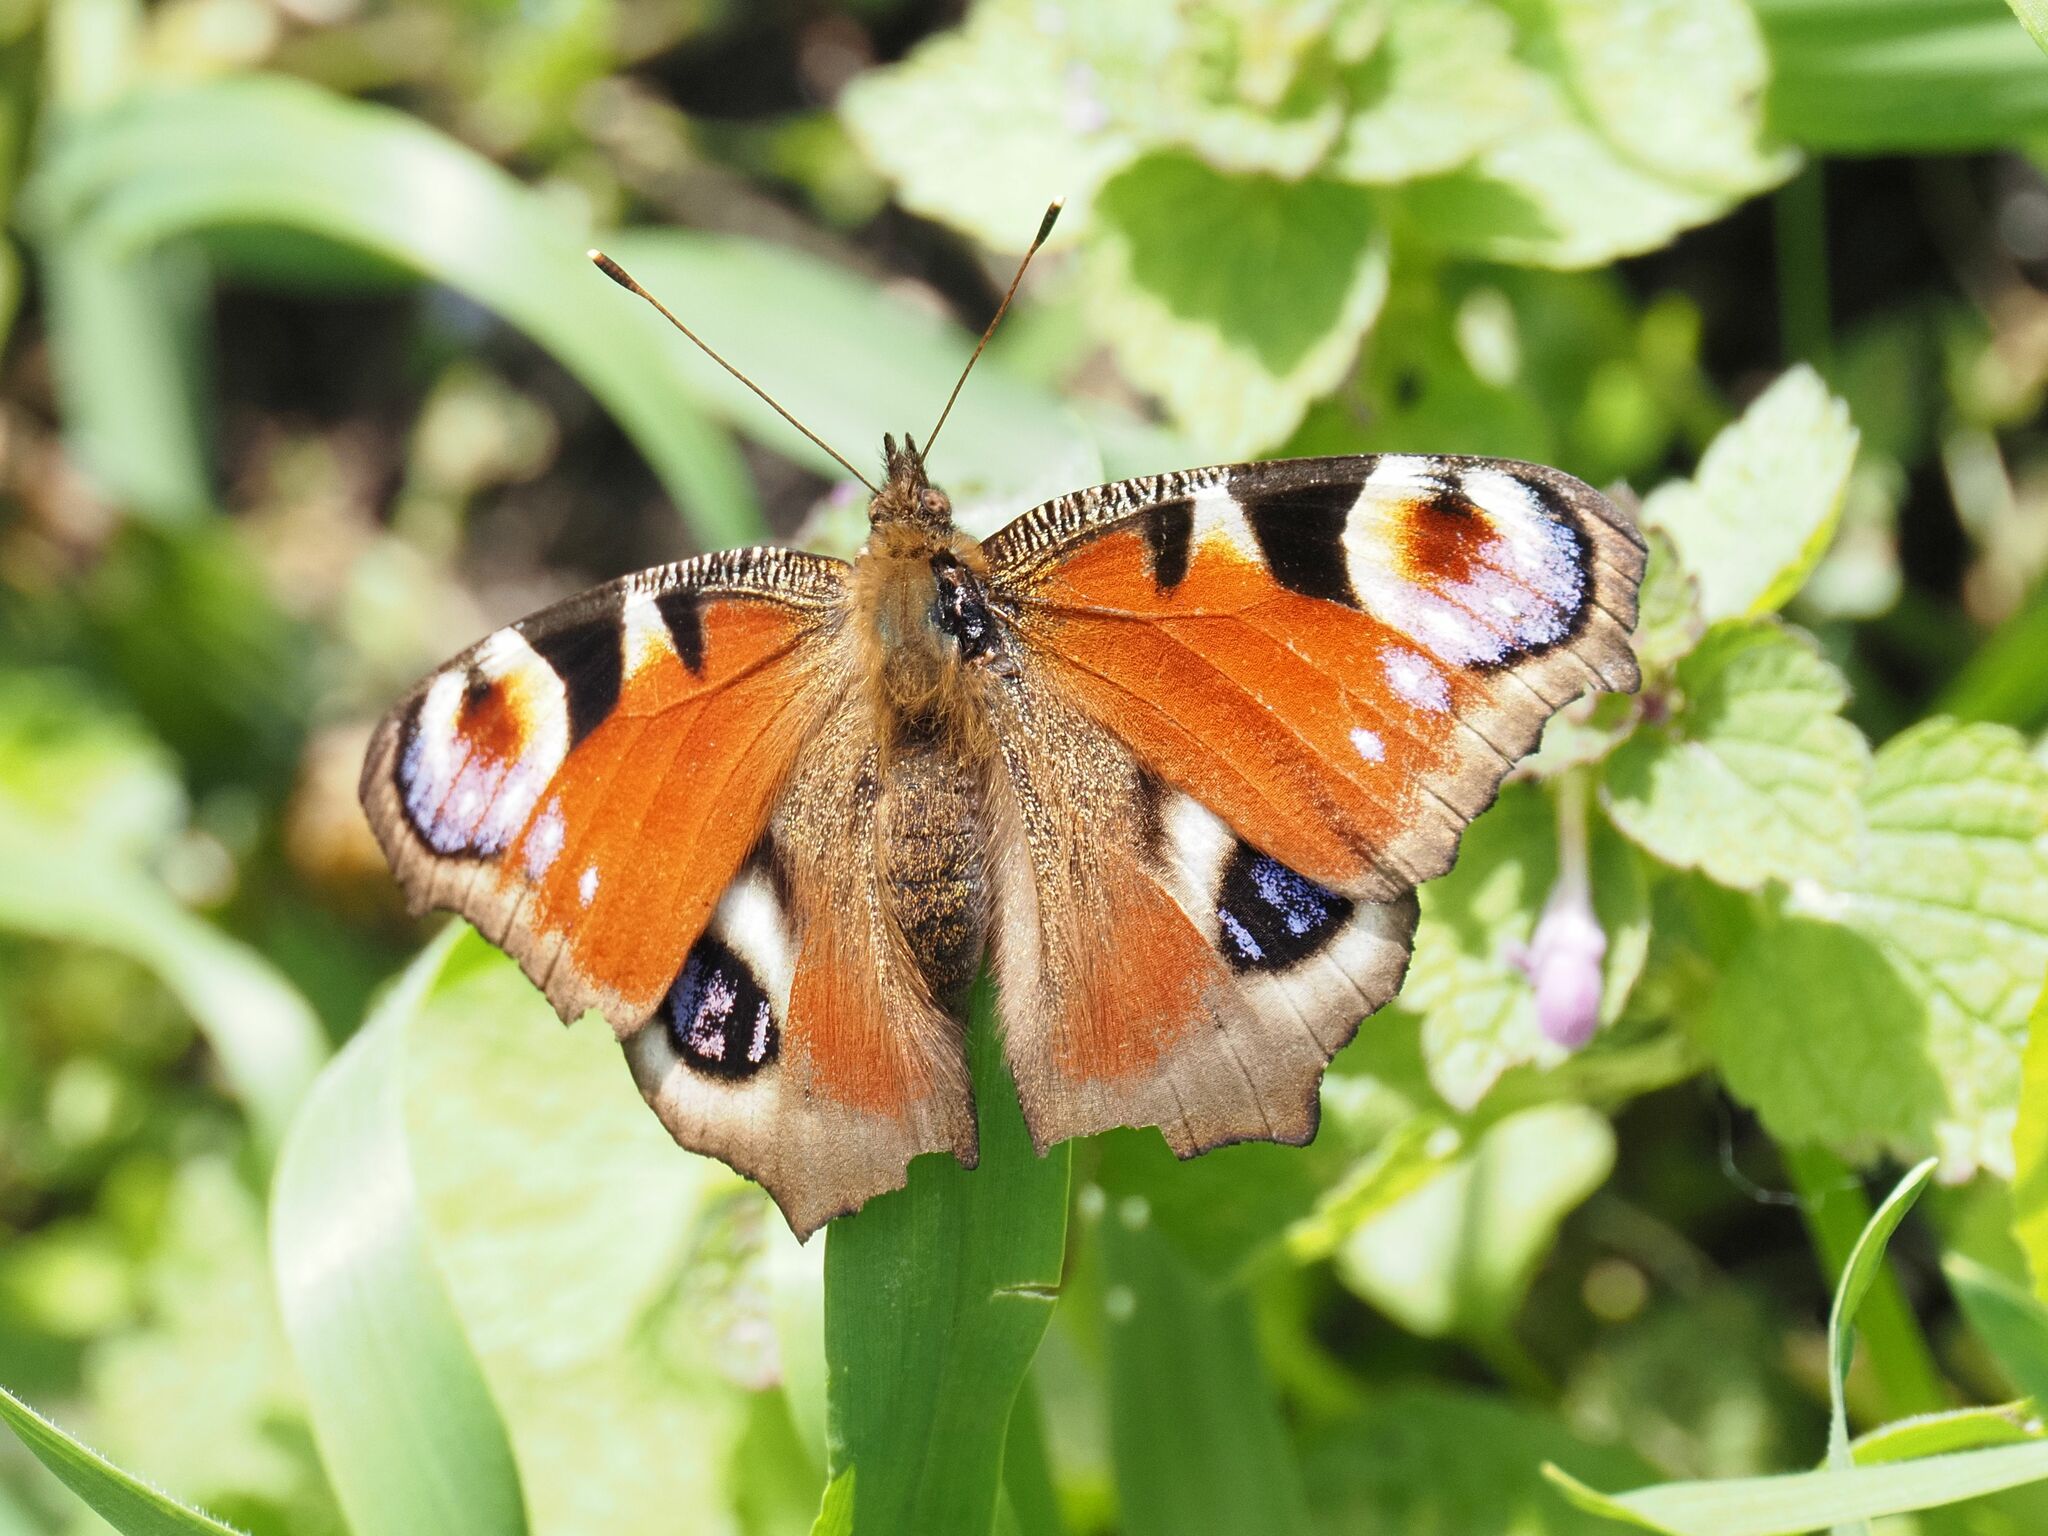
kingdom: Animalia
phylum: Arthropoda
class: Insecta
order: Lepidoptera
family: Nymphalidae
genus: Aglais
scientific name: Aglais io
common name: Peacock
